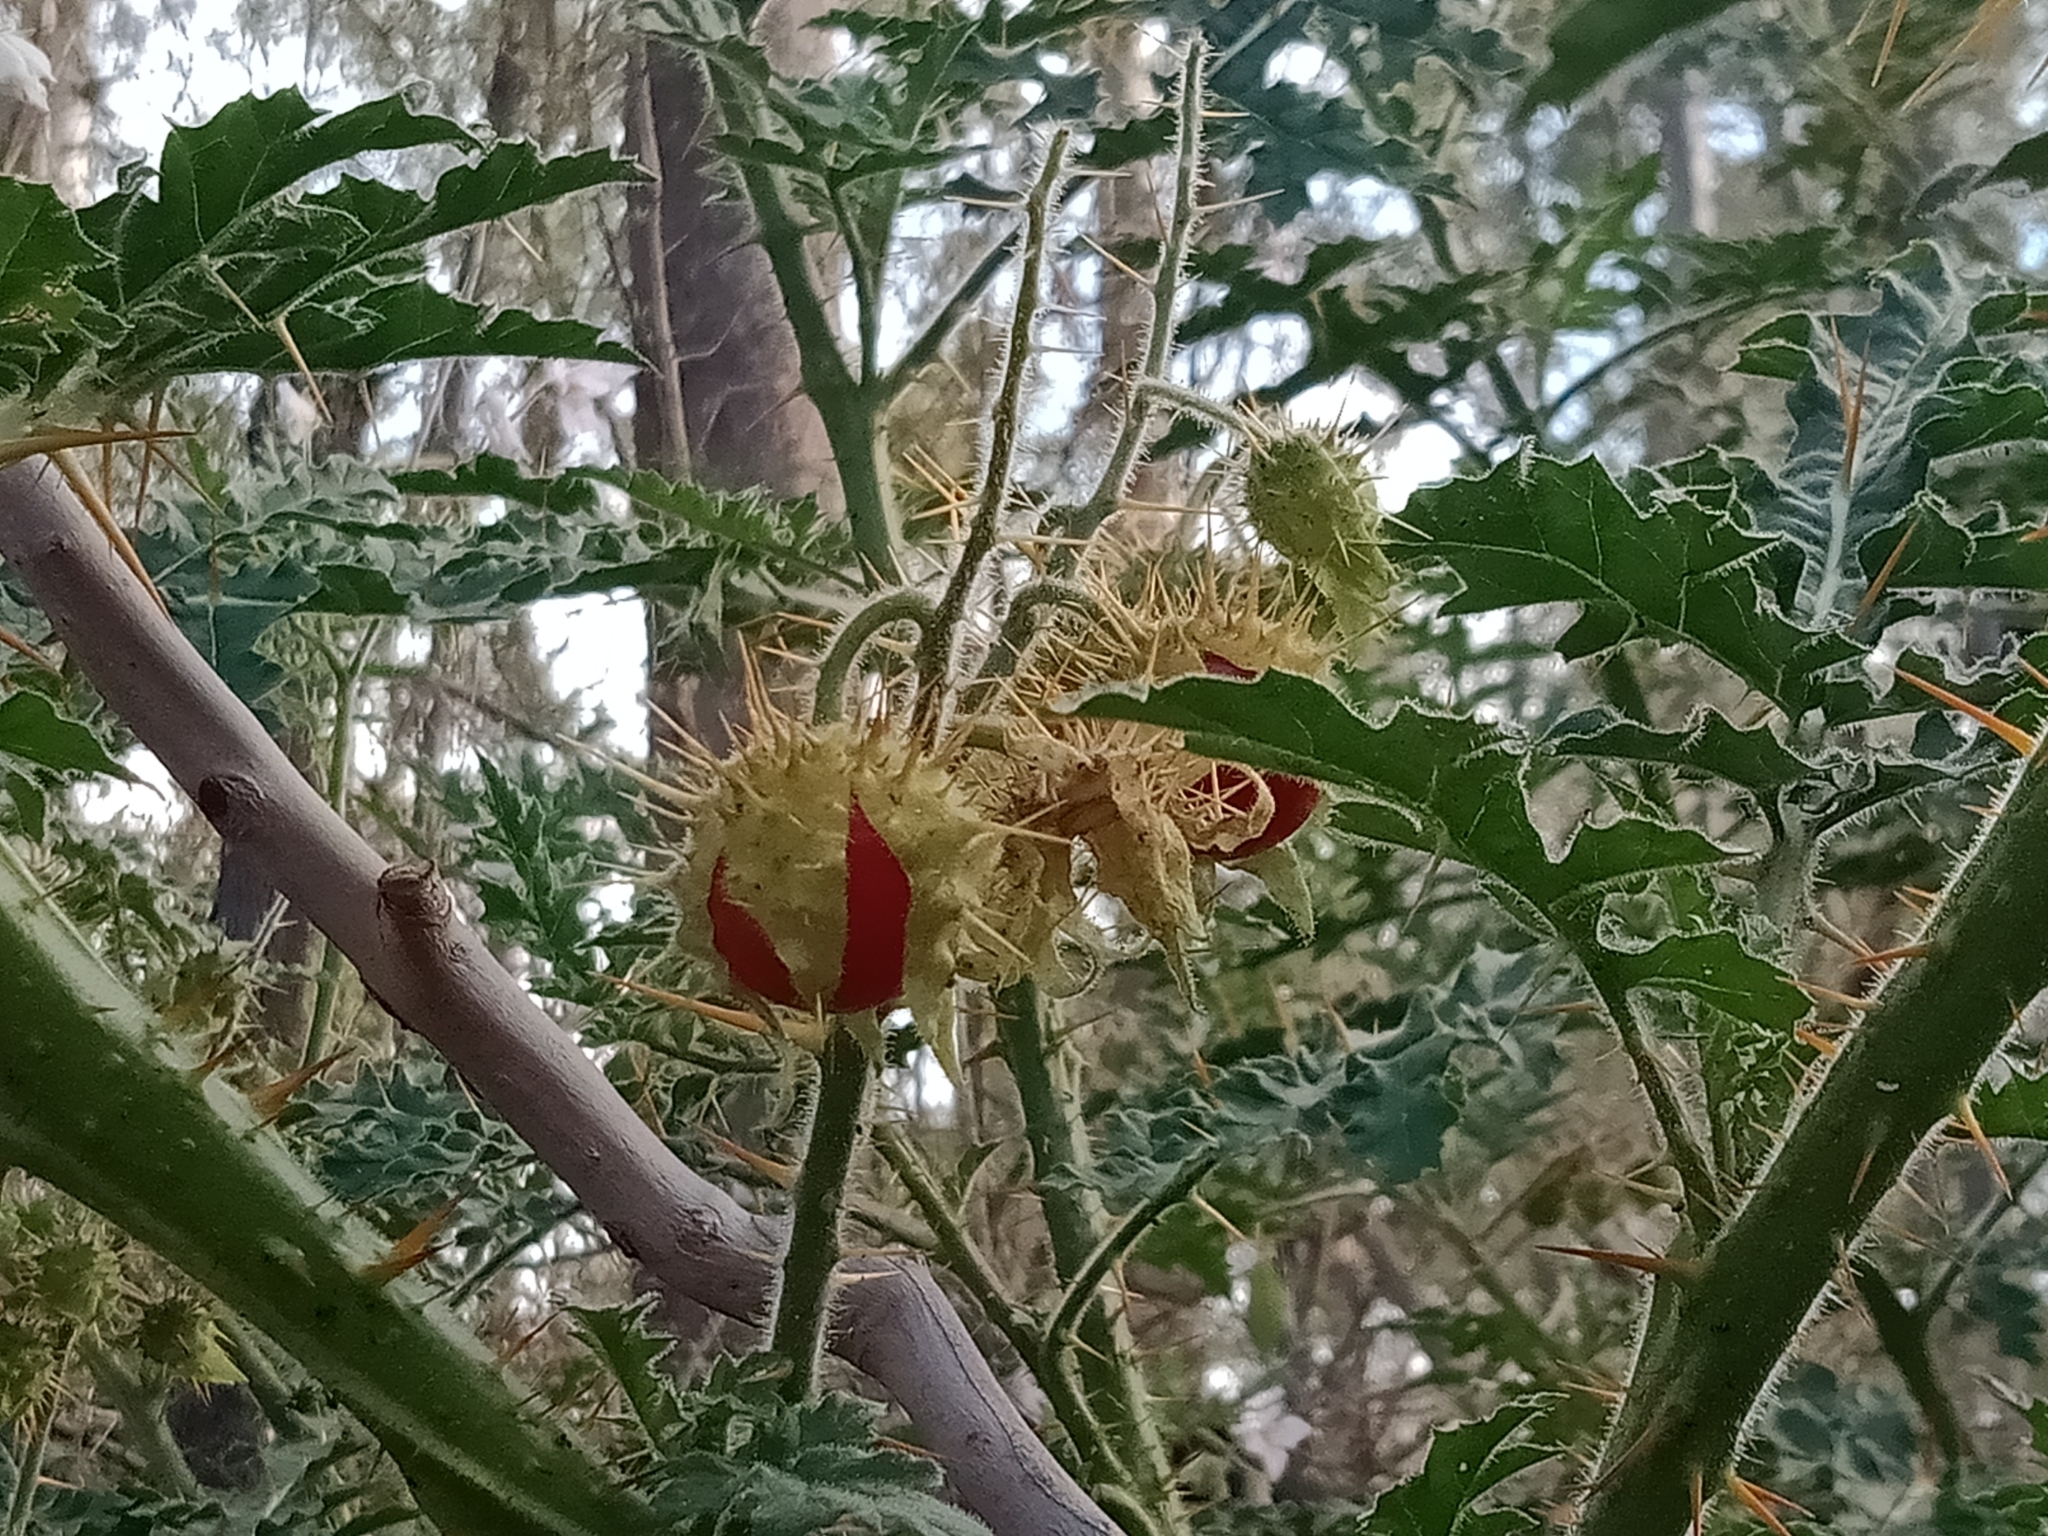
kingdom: Plantae
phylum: Tracheophyta
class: Magnoliopsida
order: Solanales
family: Solanaceae
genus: Solanum
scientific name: Solanum sisymbriifolium
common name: Red buffalo-bur
